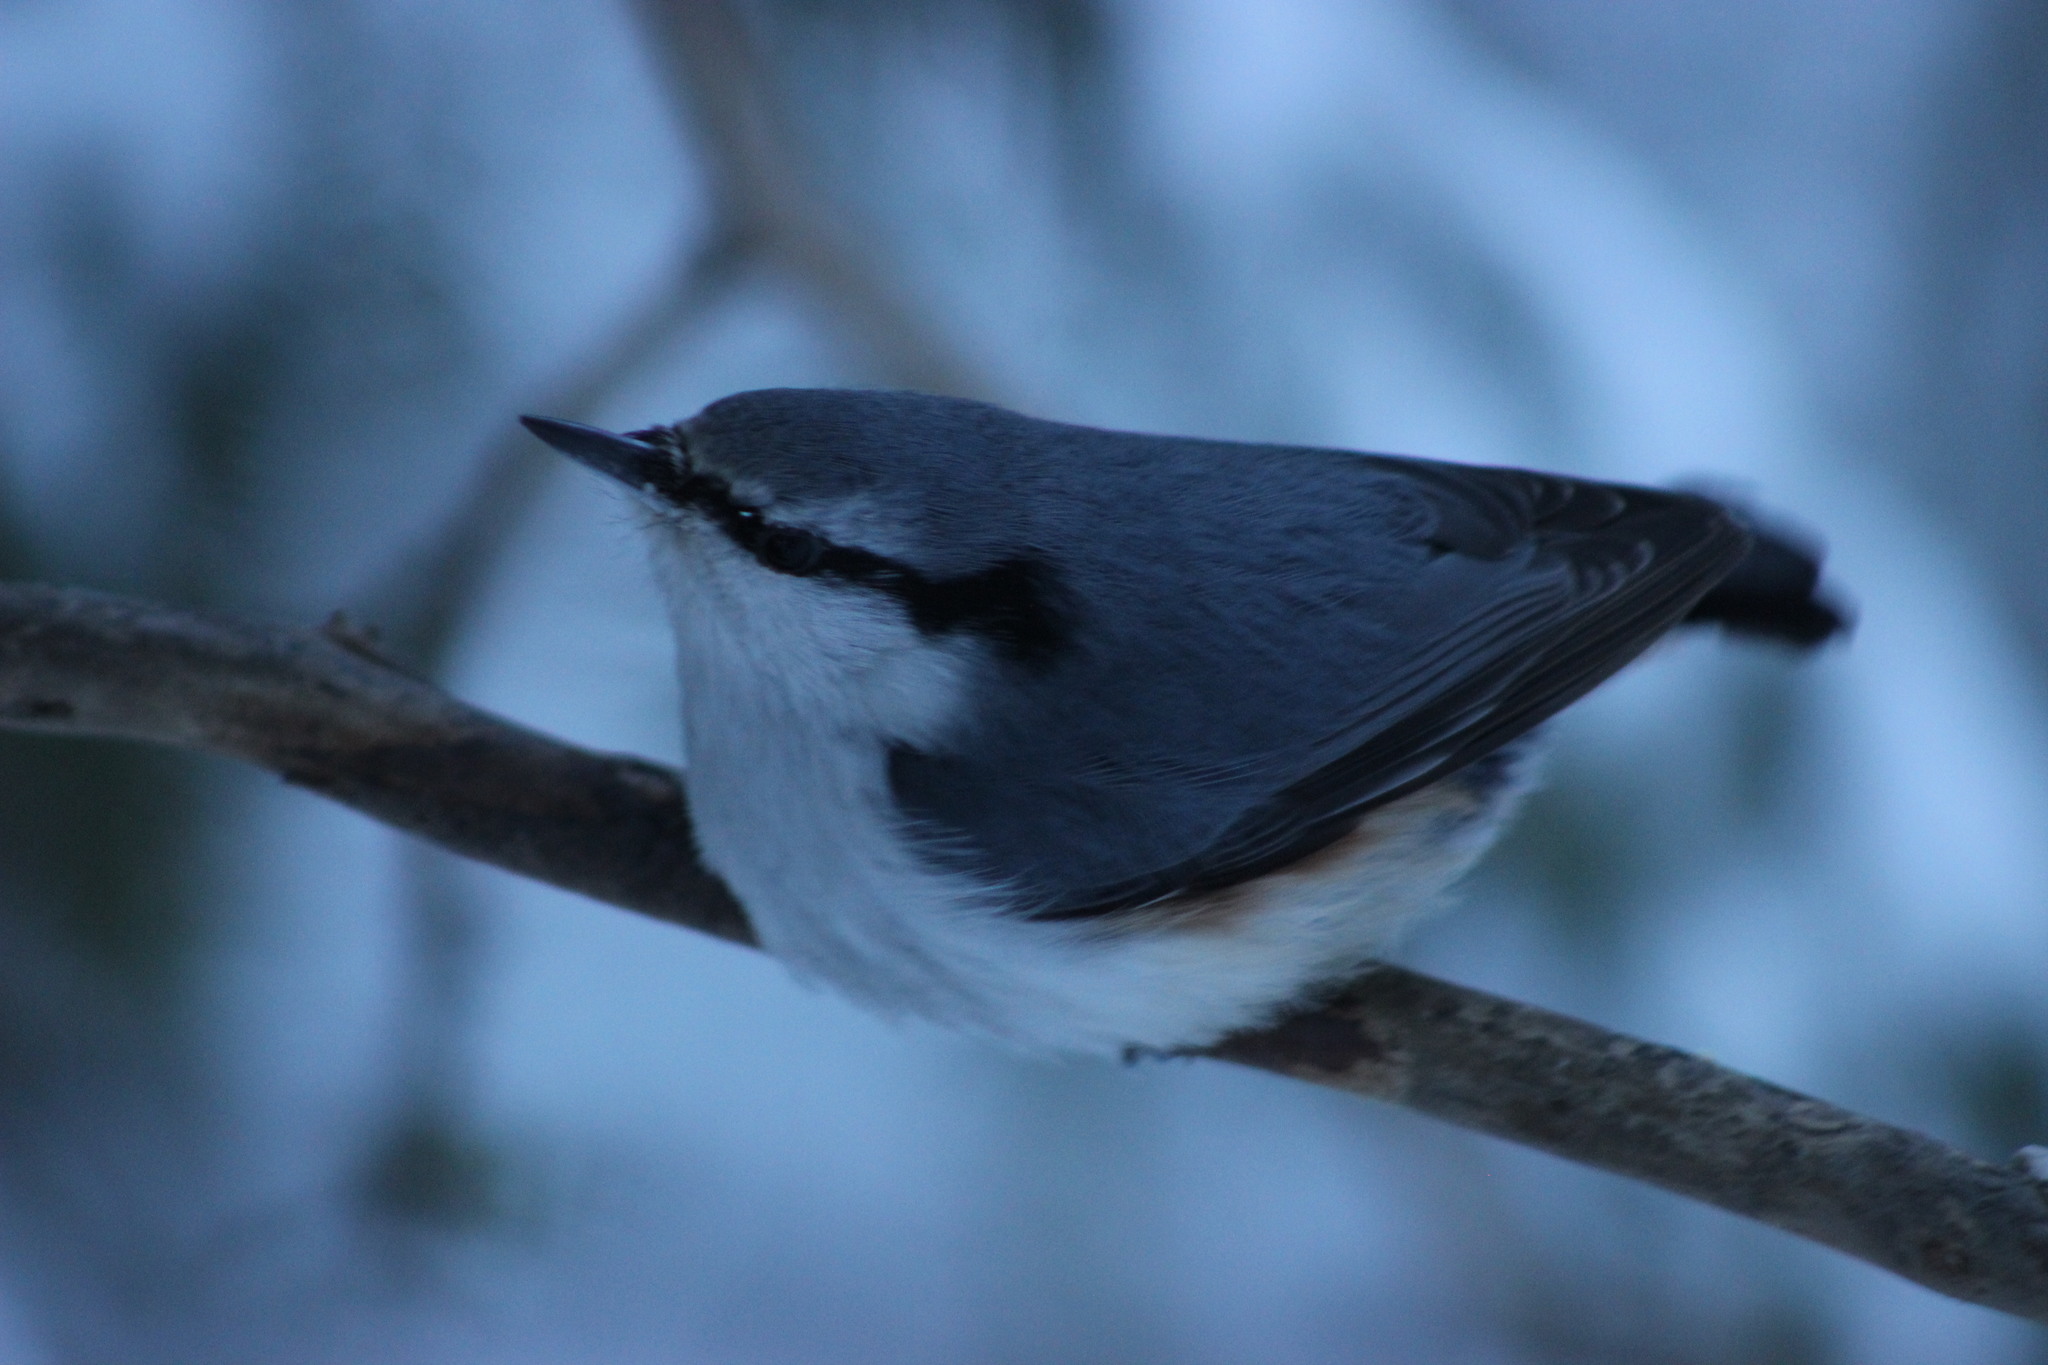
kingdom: Animalia
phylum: Chordata
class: Aves
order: Passeriformes
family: Sittidae
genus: Sitta
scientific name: Sitta europaea
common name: Eurasian nuthatch
